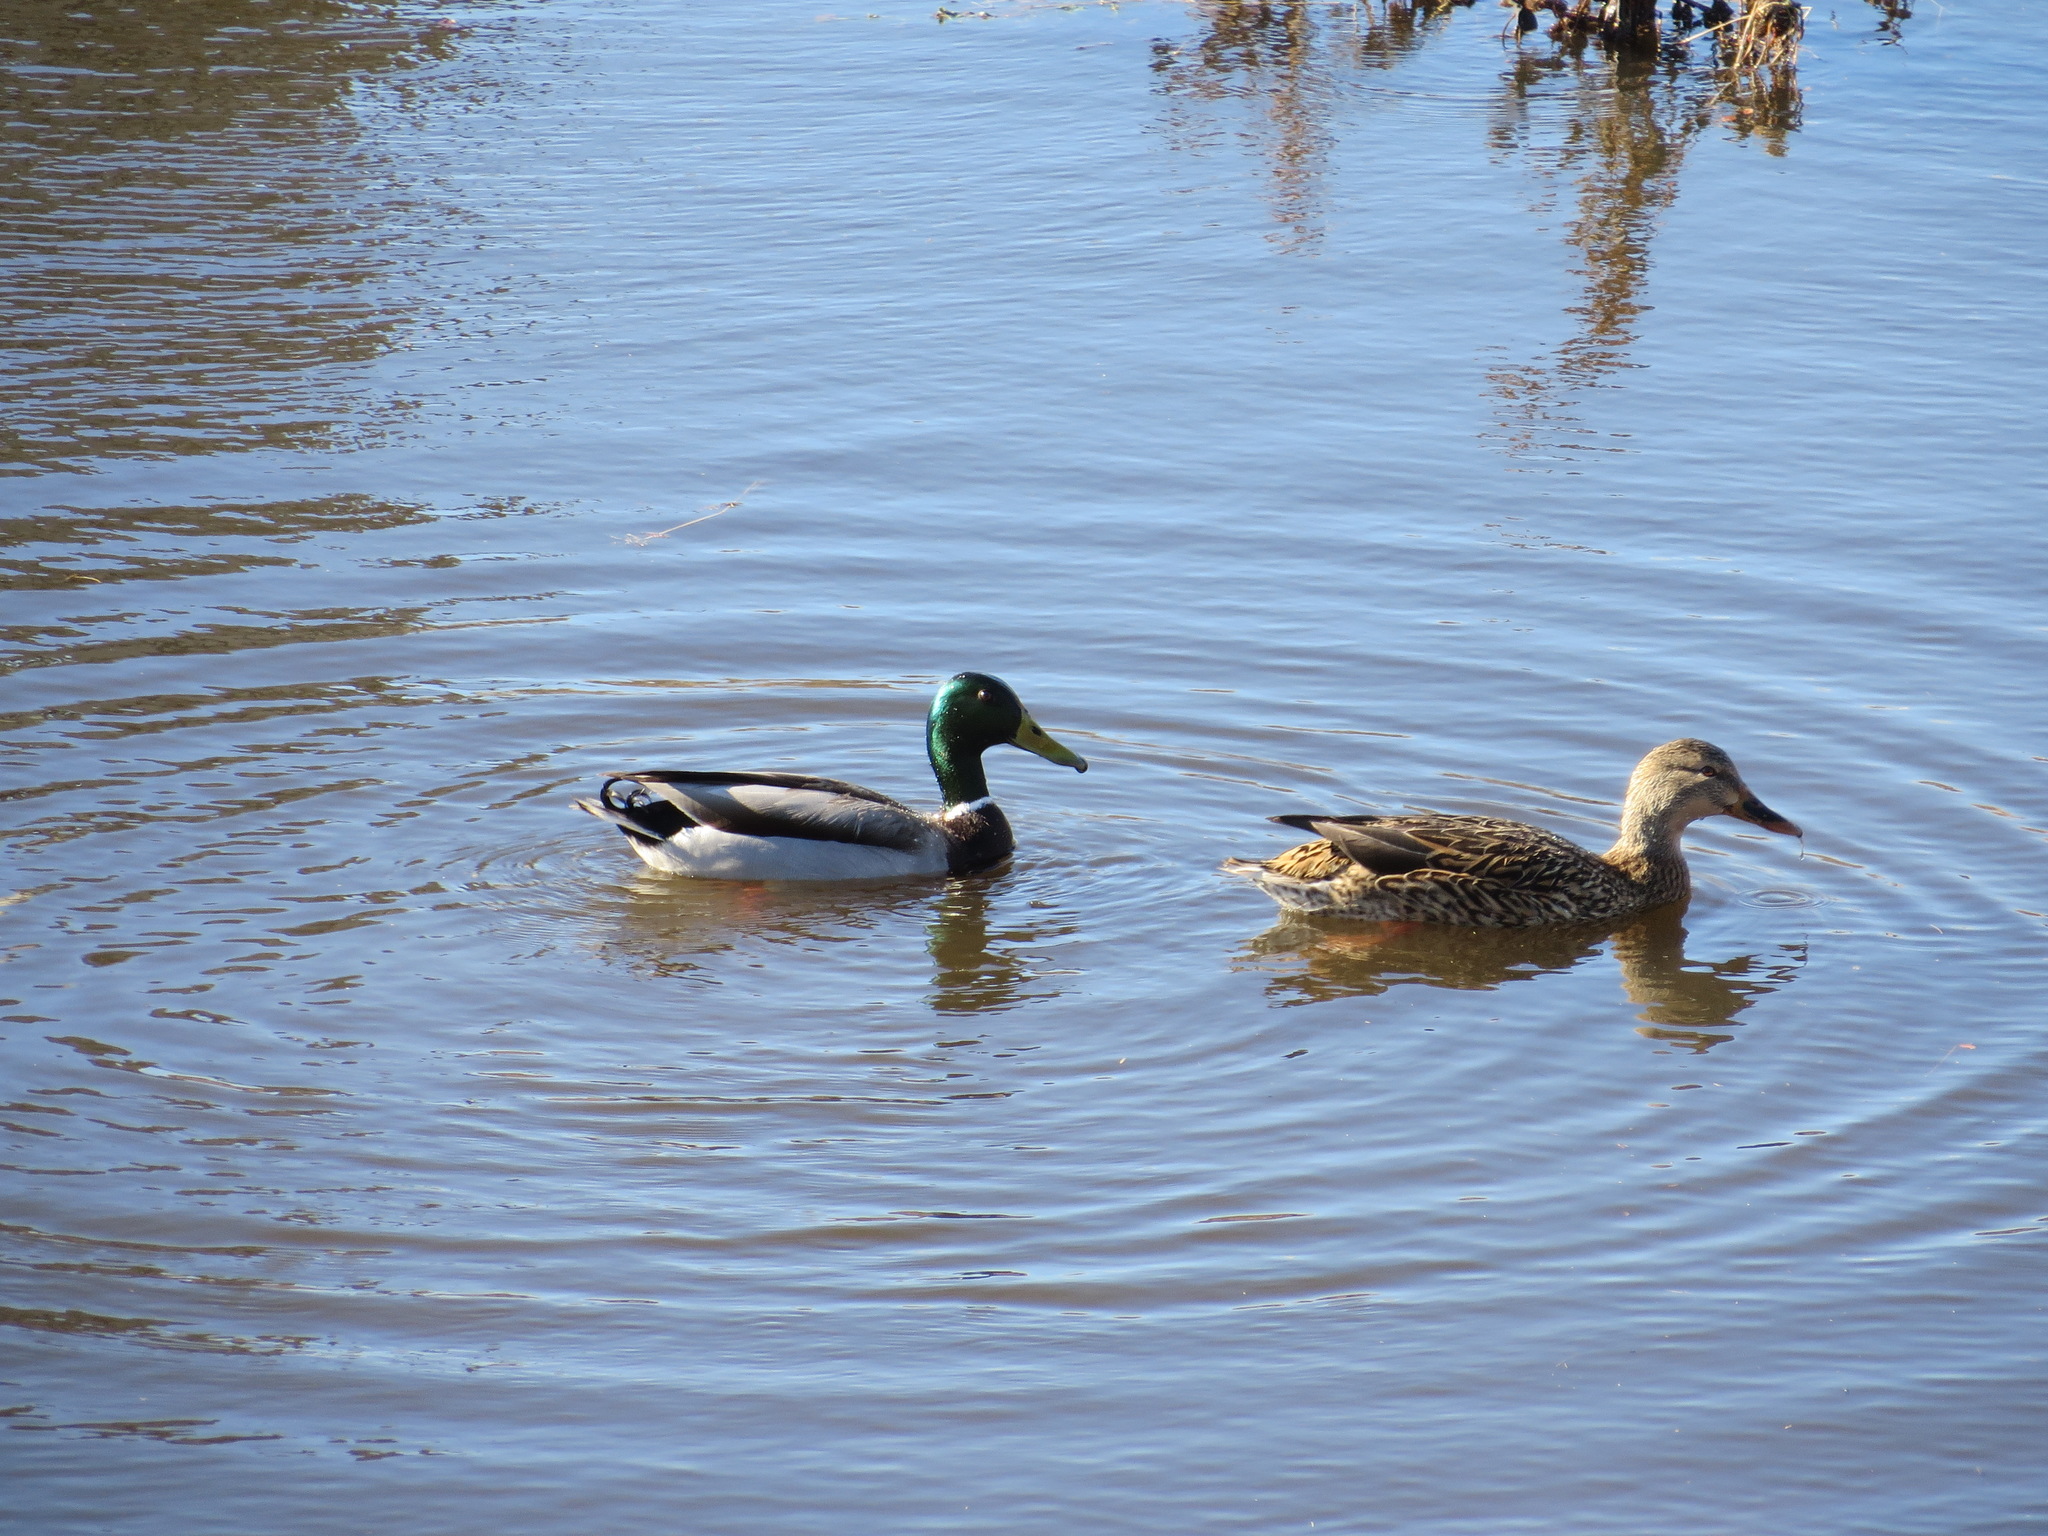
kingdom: Animalia
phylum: Chordata
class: Aves
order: Anseriformes
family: Anatidae
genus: Anas
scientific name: Anas platyrhynchos
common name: Mallard
